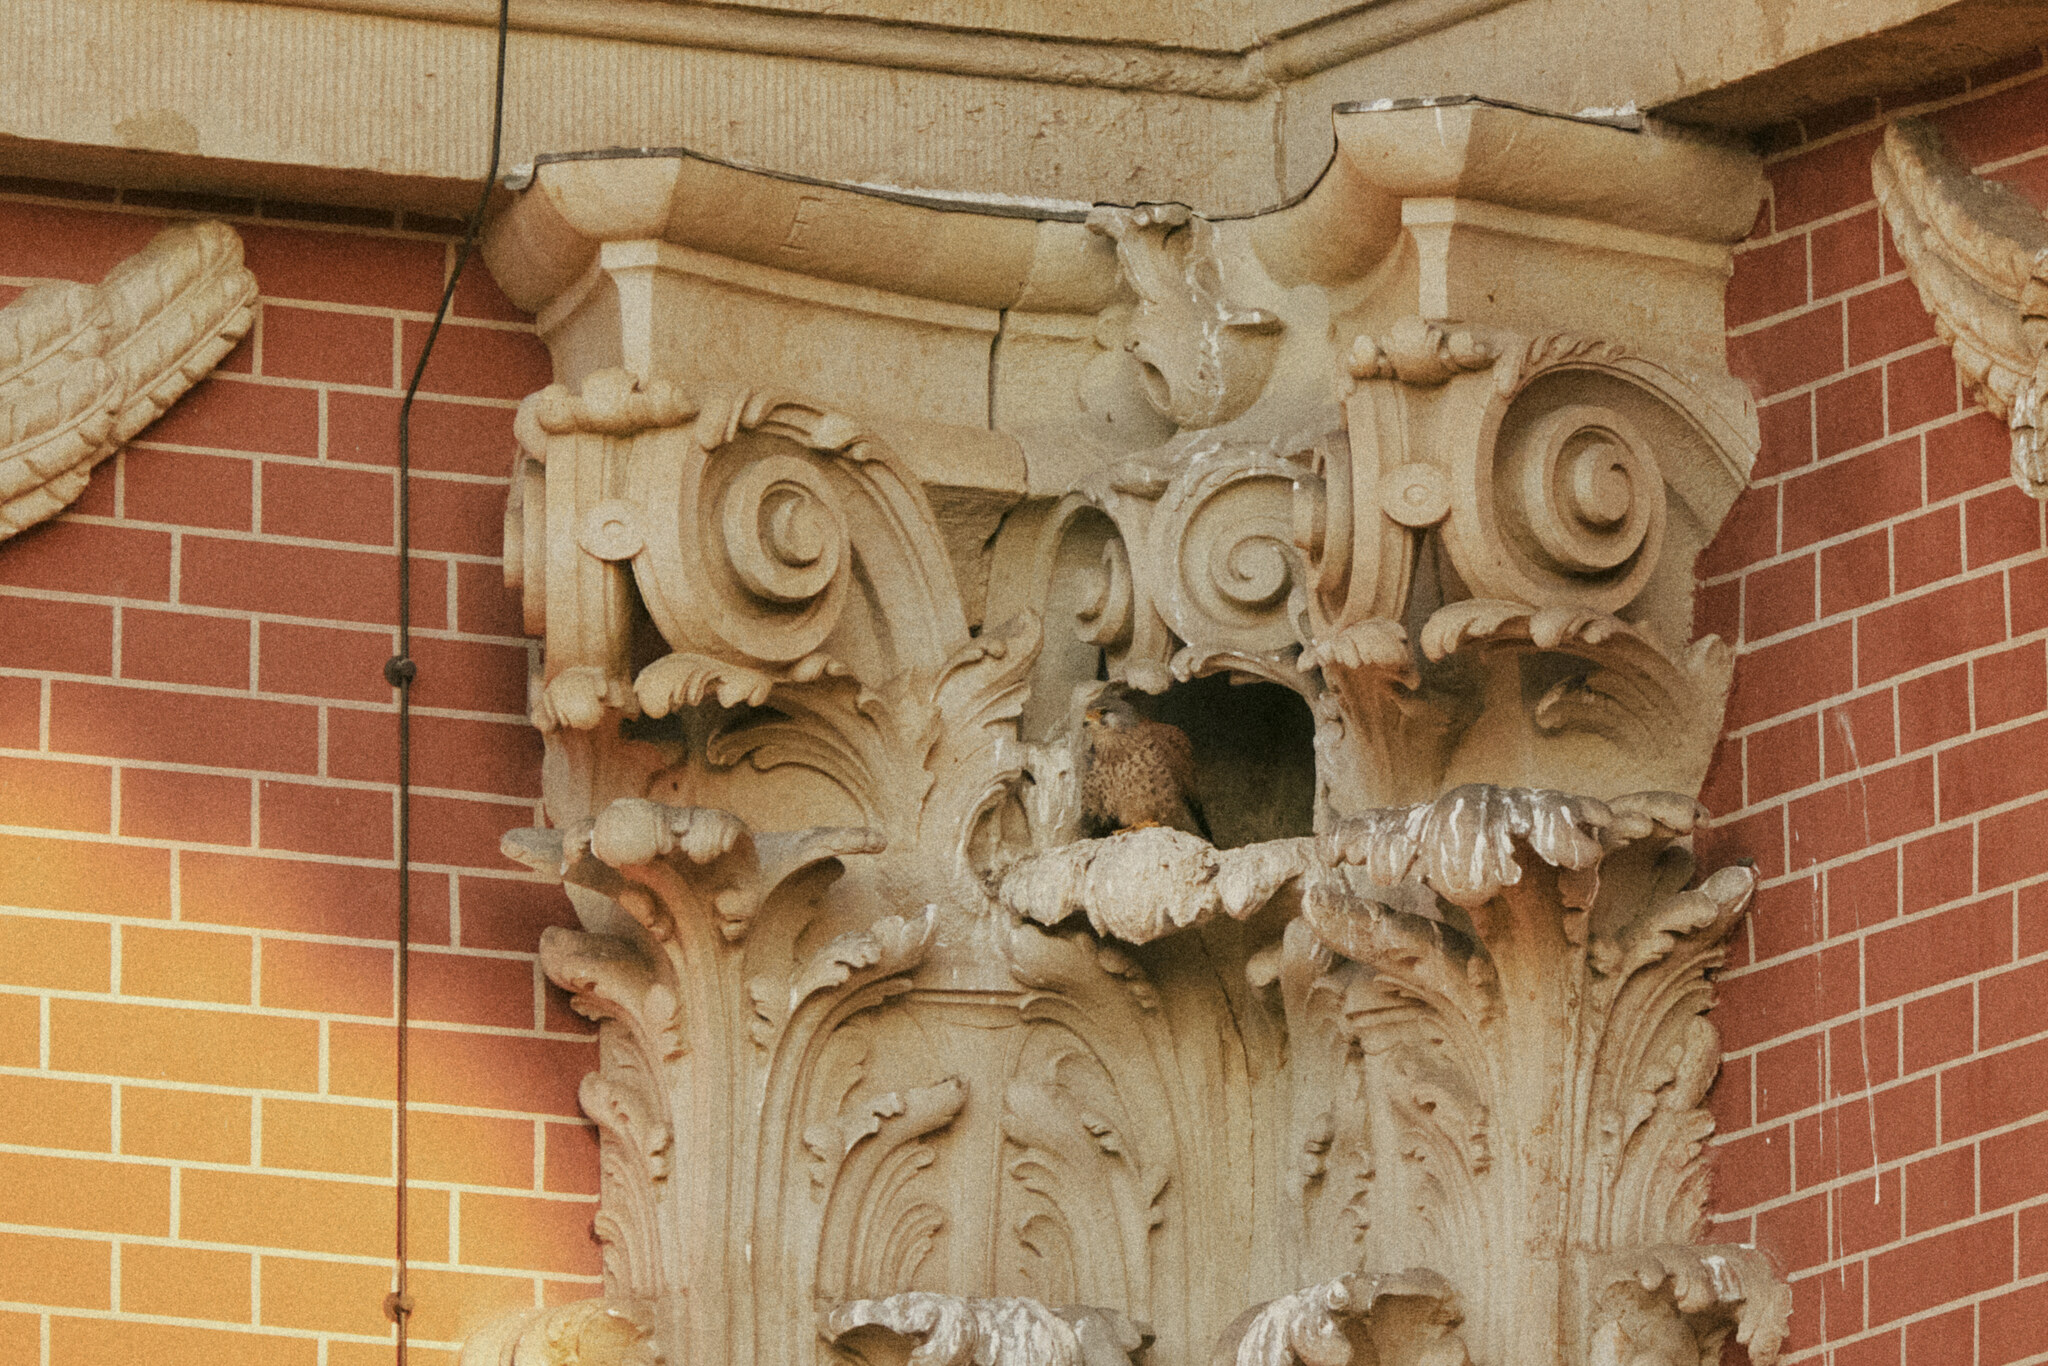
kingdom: Animalia
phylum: Chordata
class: Aves
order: Falconiformes
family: Falconidae
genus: Falco
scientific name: Falco tinnunculus
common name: Common kestrel
